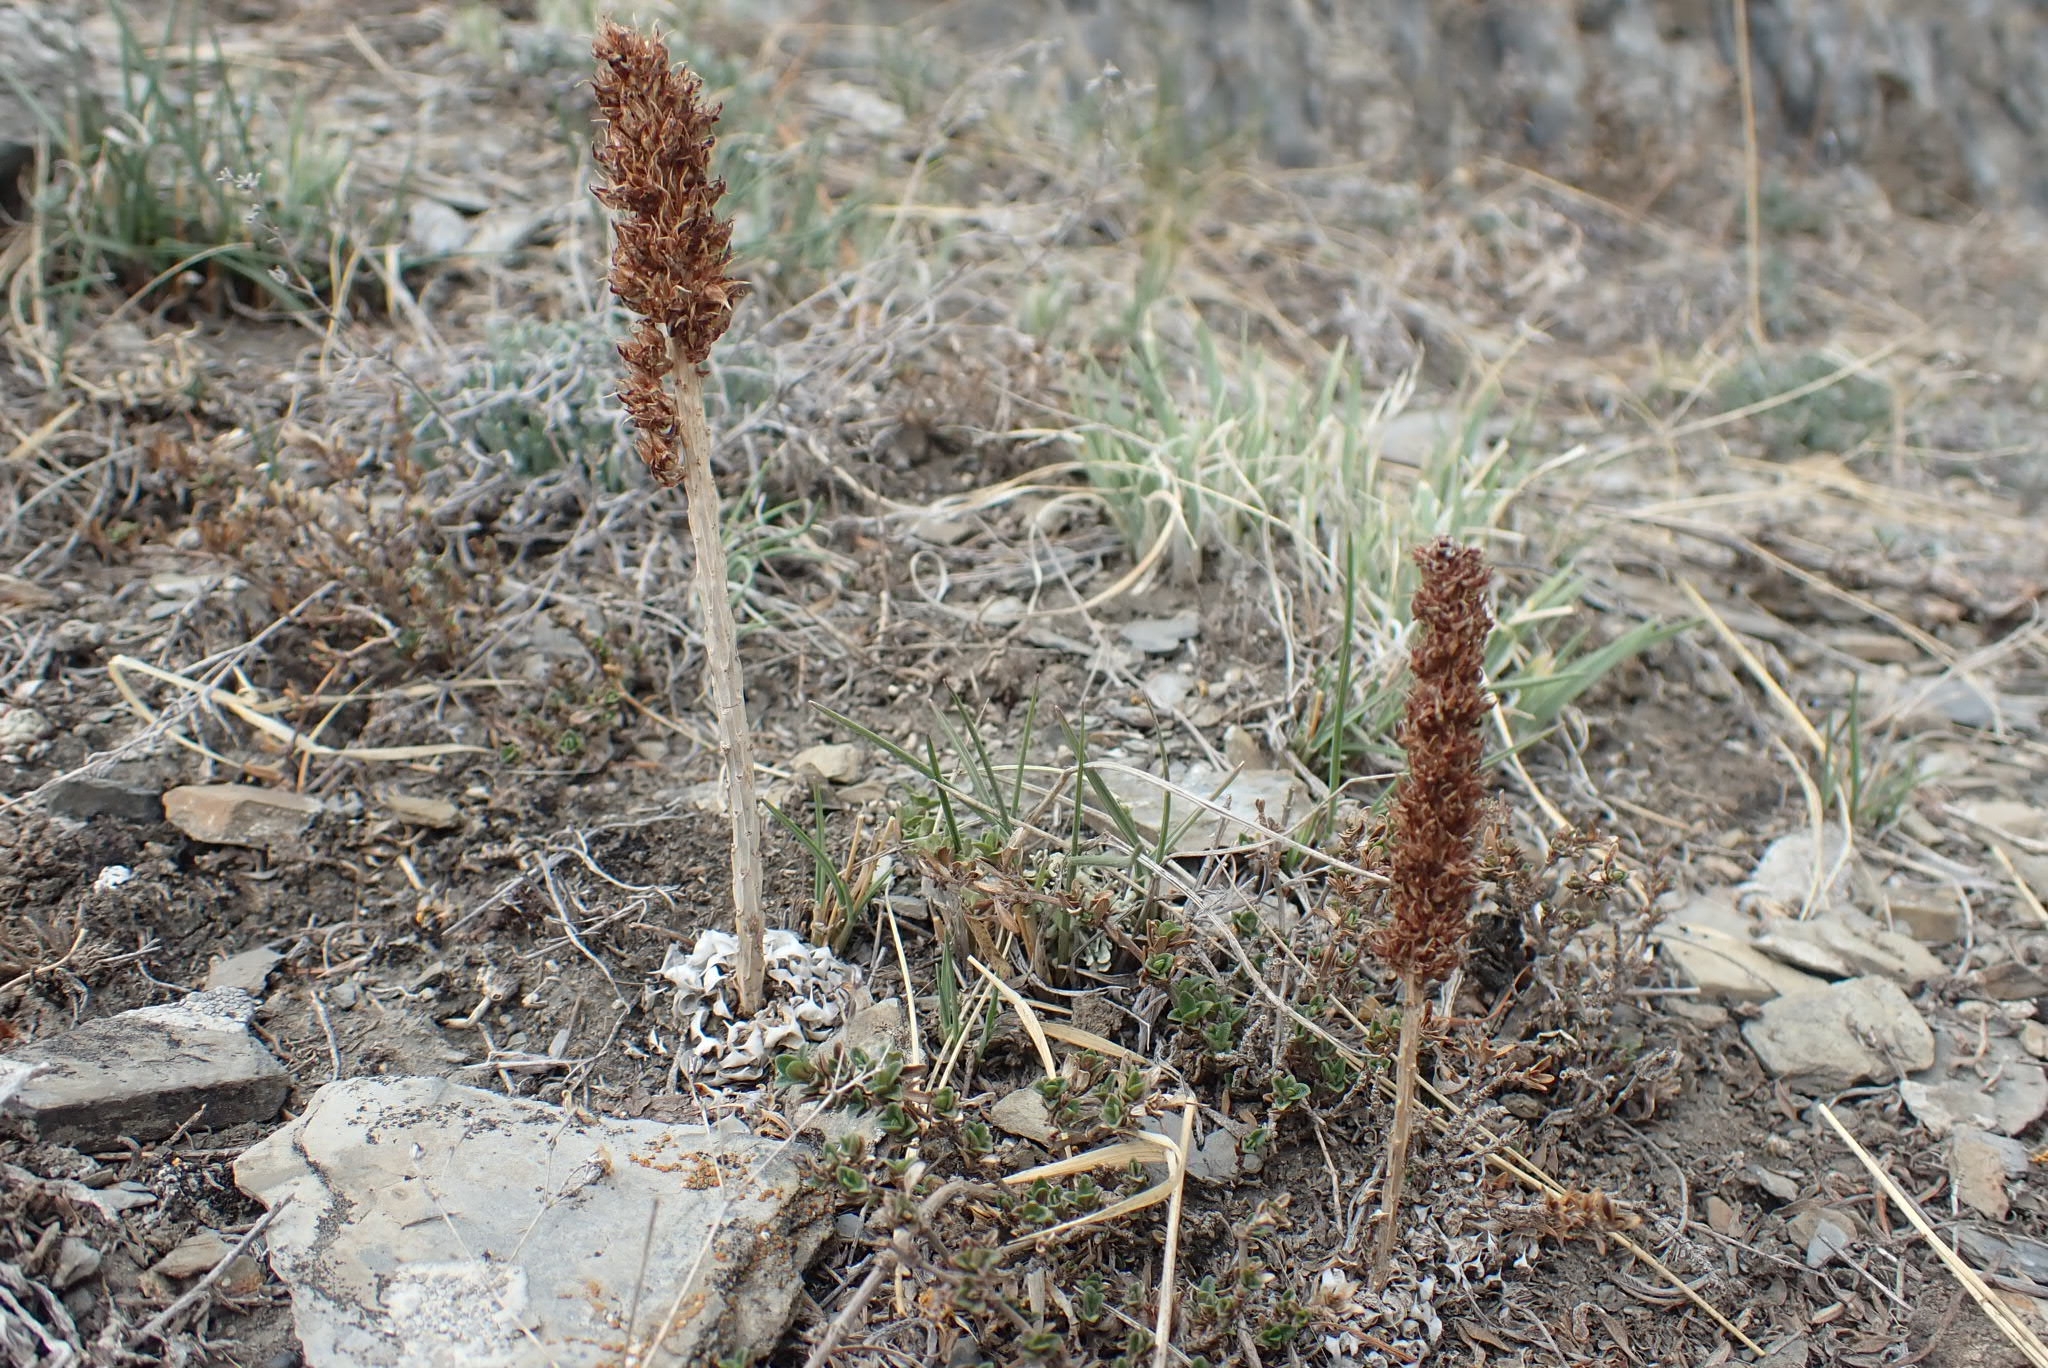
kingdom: Plantae
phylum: Tracheophyta
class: Magnoliopsida
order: Saxifragales
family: Crassulaceae
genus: Orostachys
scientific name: Orostachys spinosa
